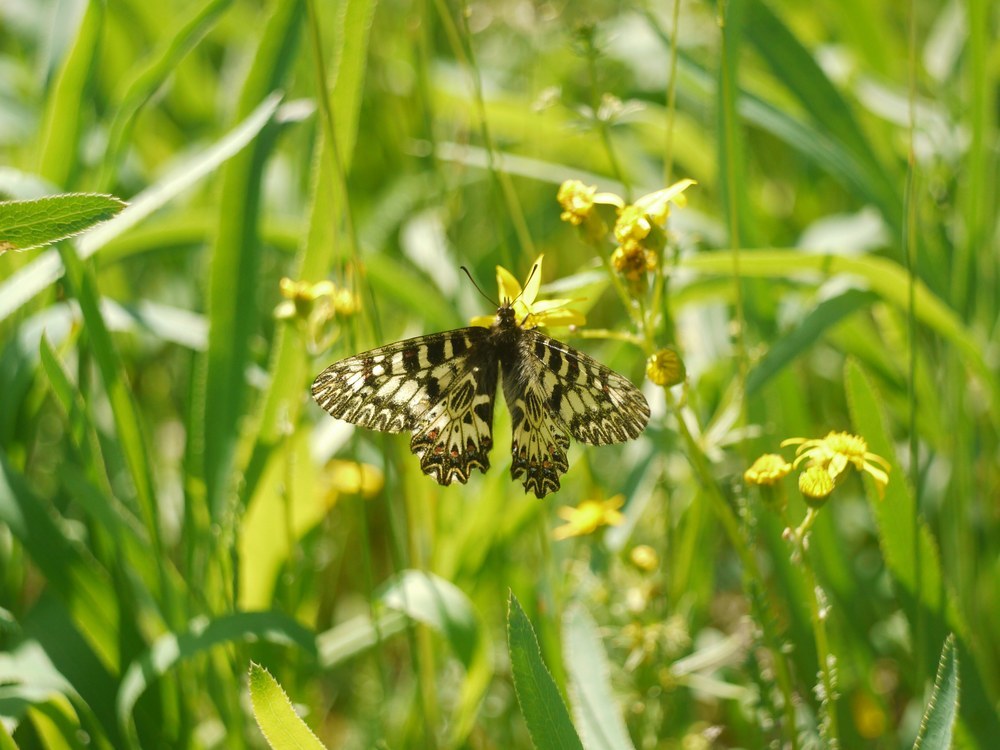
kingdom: Animalia
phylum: Arthropoda
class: Insecta
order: Lepidoptera
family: Papilionidae
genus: Zerynthia
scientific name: Zerynthia polyxena
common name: Southern festoon
